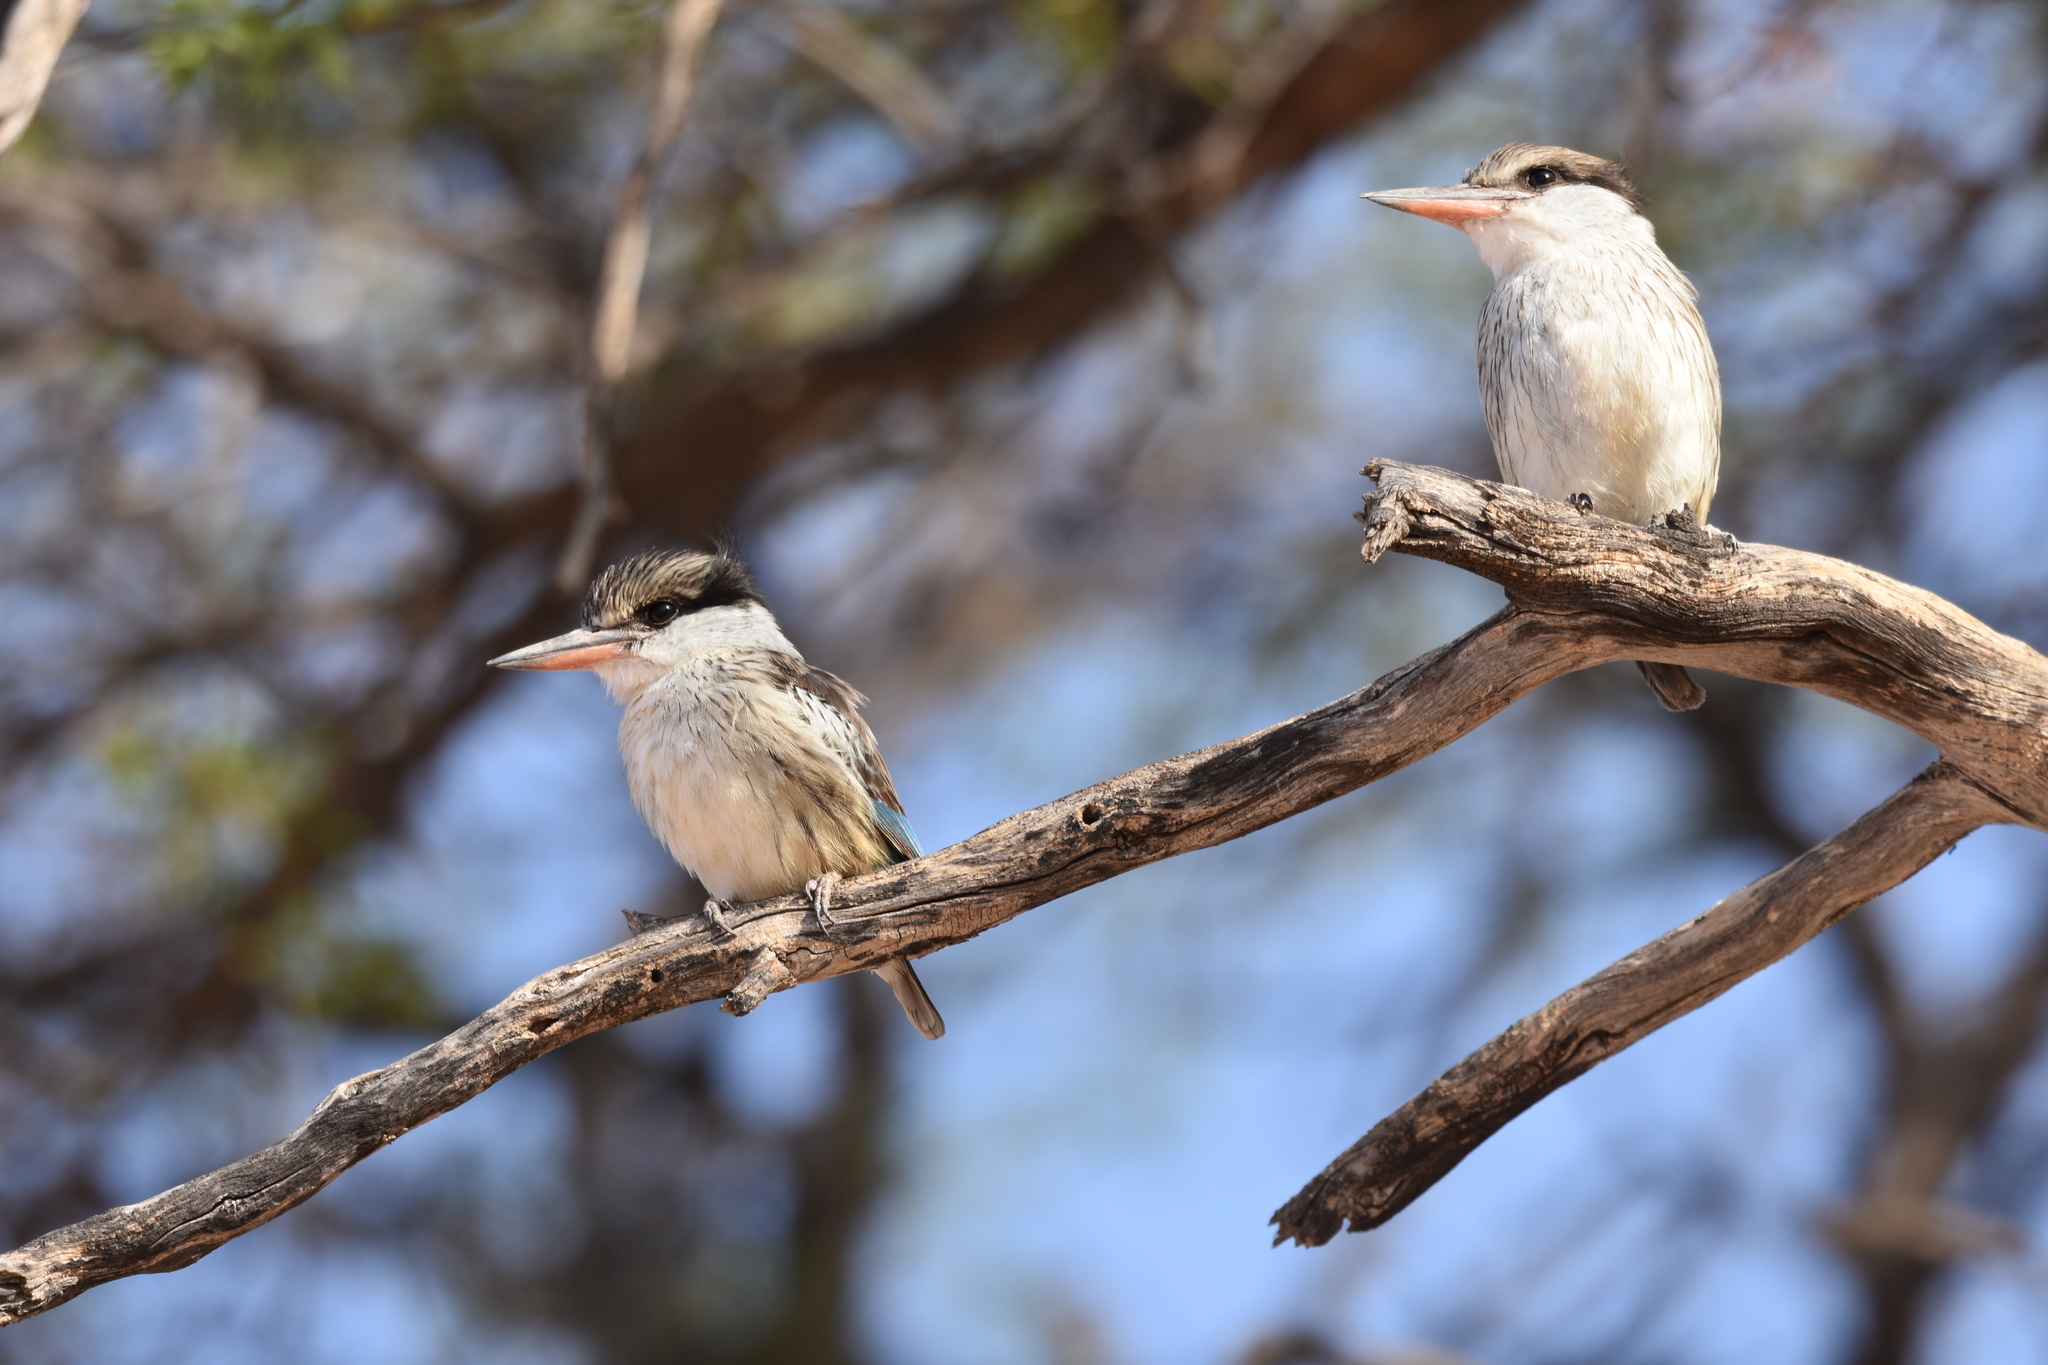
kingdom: Animalia
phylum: Chordata
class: Aves
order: Coraciiformes
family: Alcedinidae
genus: Halcyon
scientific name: Halcyon chelicuti
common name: Striped kingfisher
